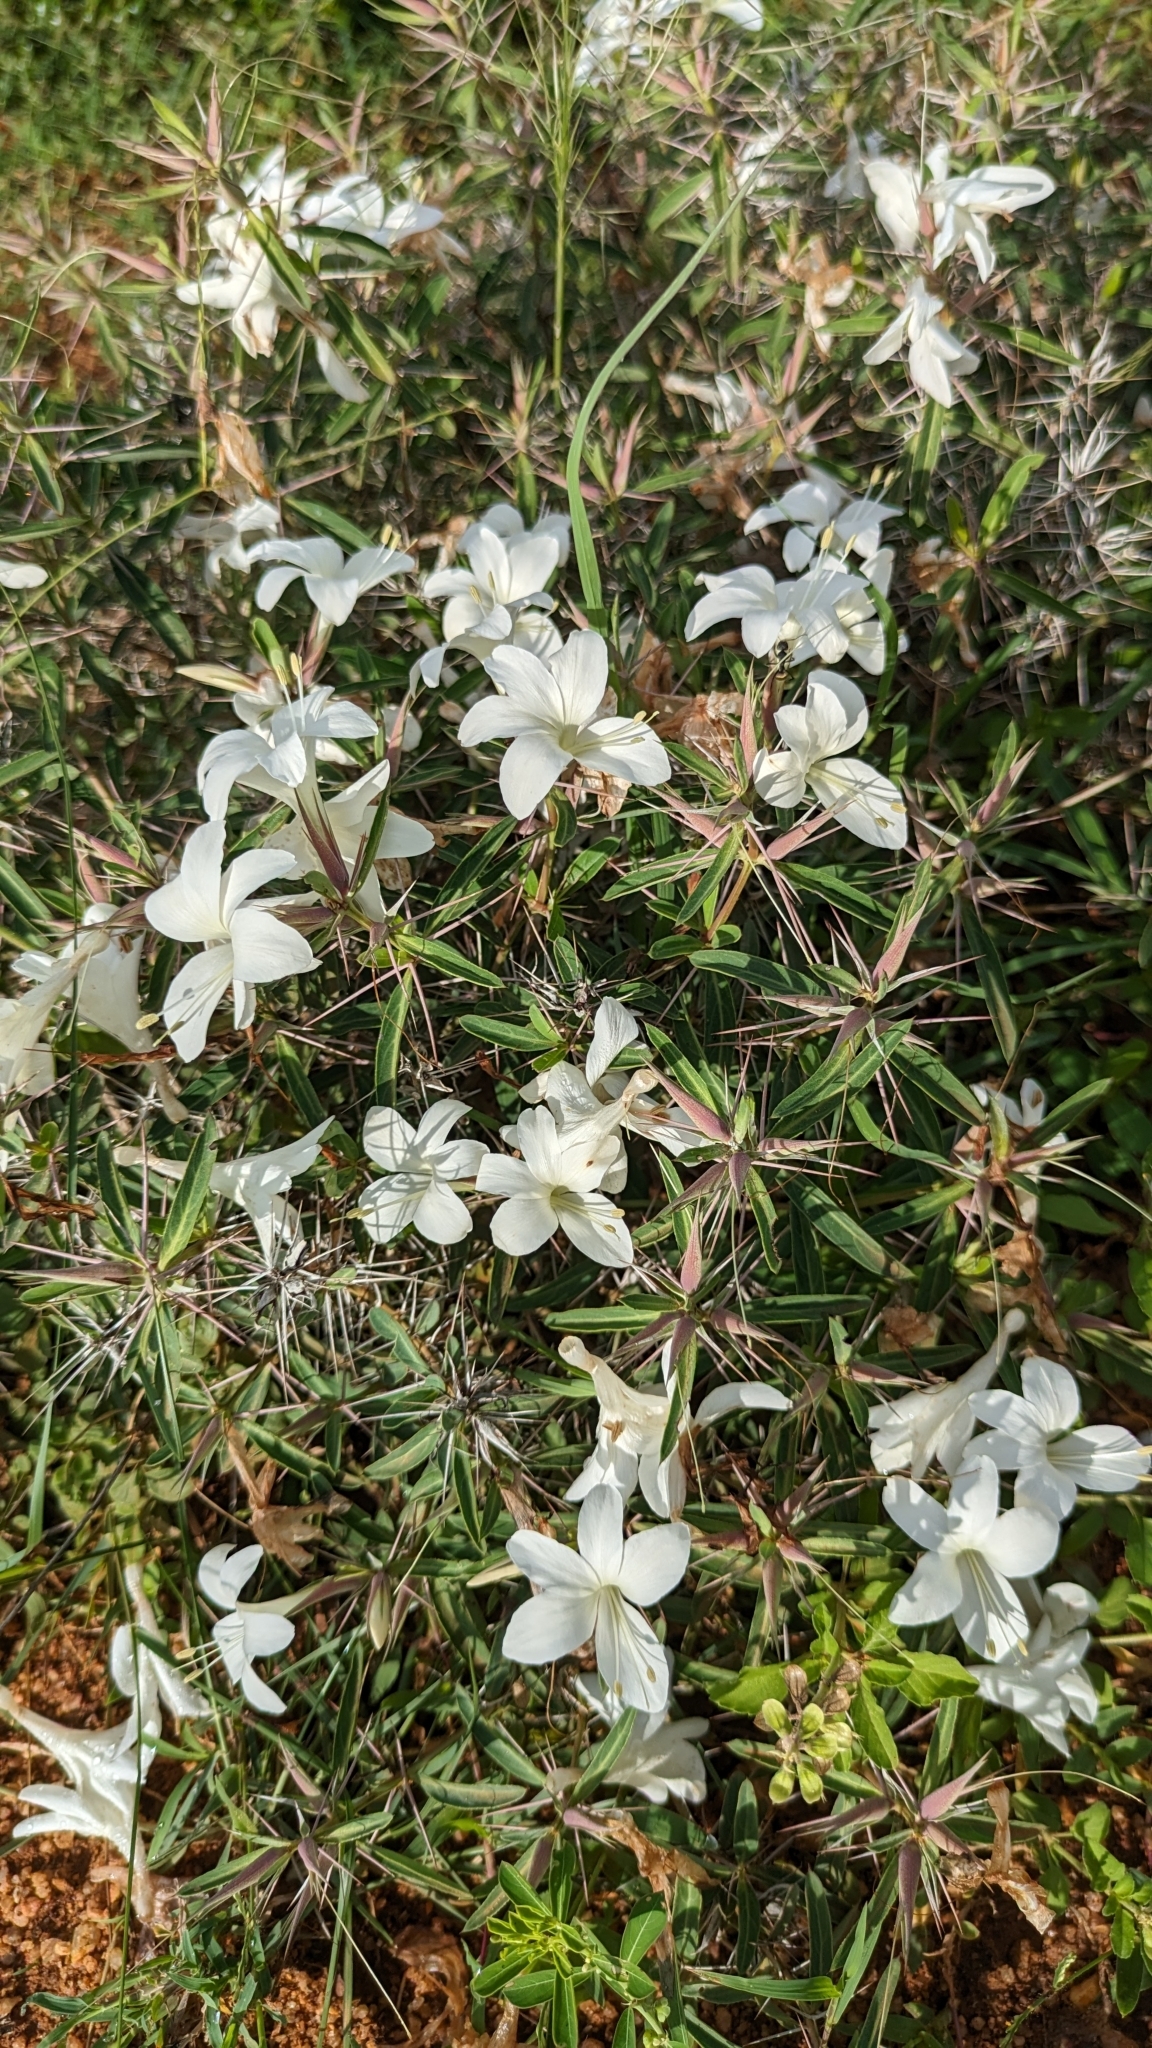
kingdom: Plantae
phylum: Tracheophyta
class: Magnoliopsida
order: Lamiales
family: Acanthaceae
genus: Barleria
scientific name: Barleria cuspidata
